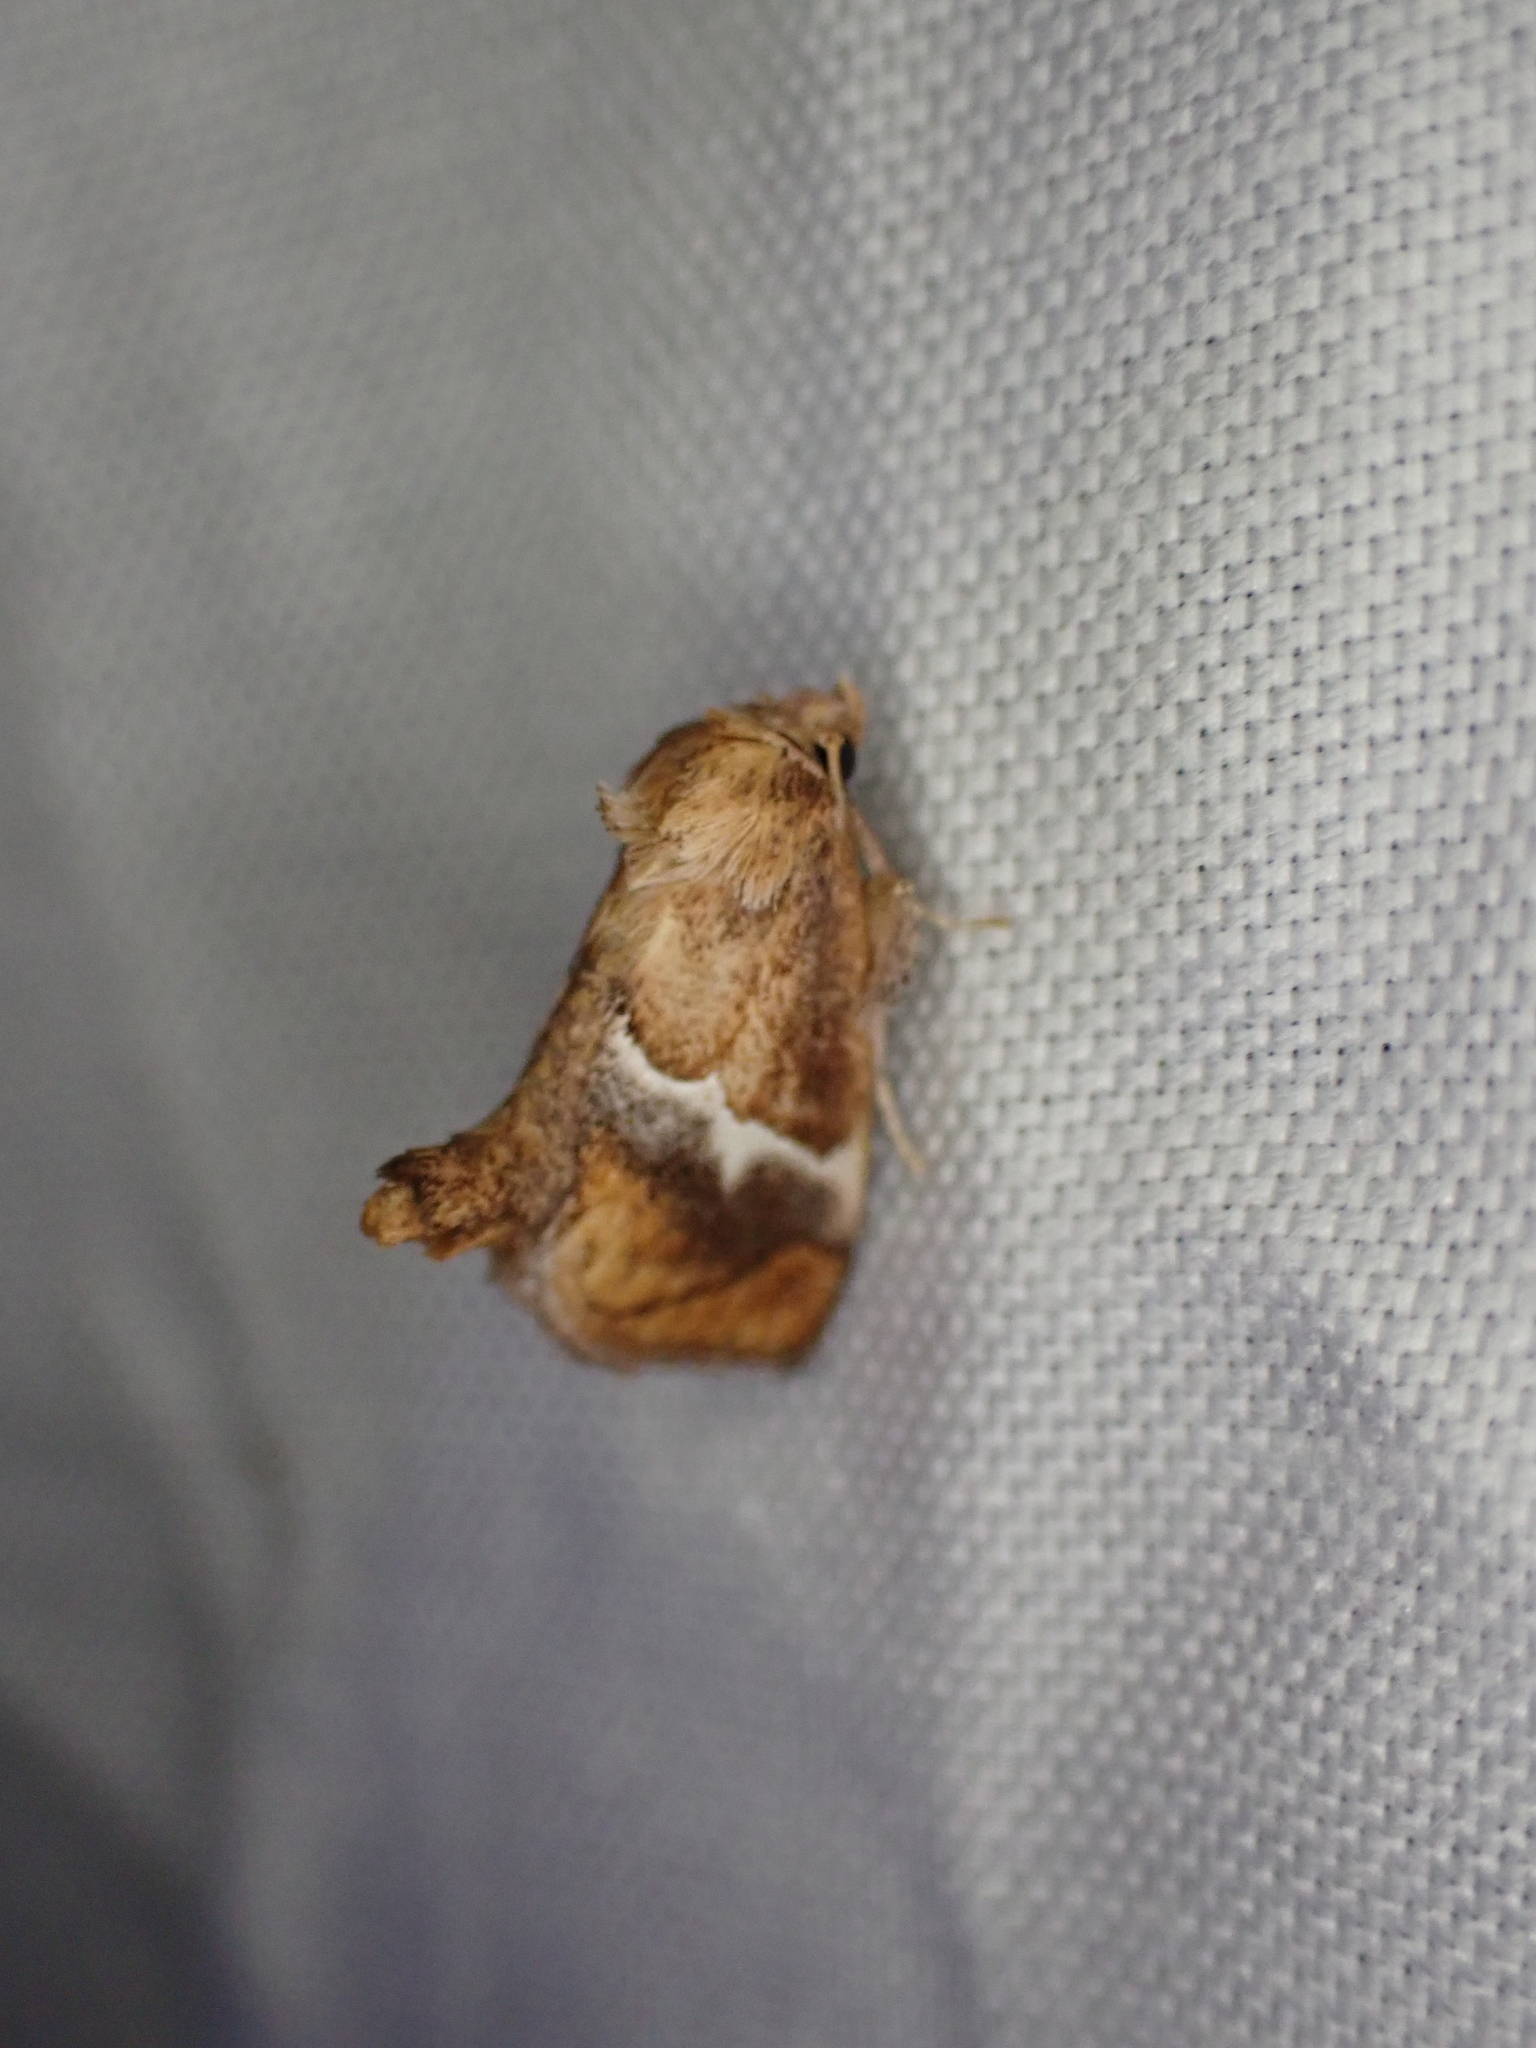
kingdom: Animalia
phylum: Arthropoda
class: Insecta
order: Lepidoptera
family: Limacodidae
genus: Lithacodes
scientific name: Lithacodes fasciola
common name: Yellow-shouldered slug moth
